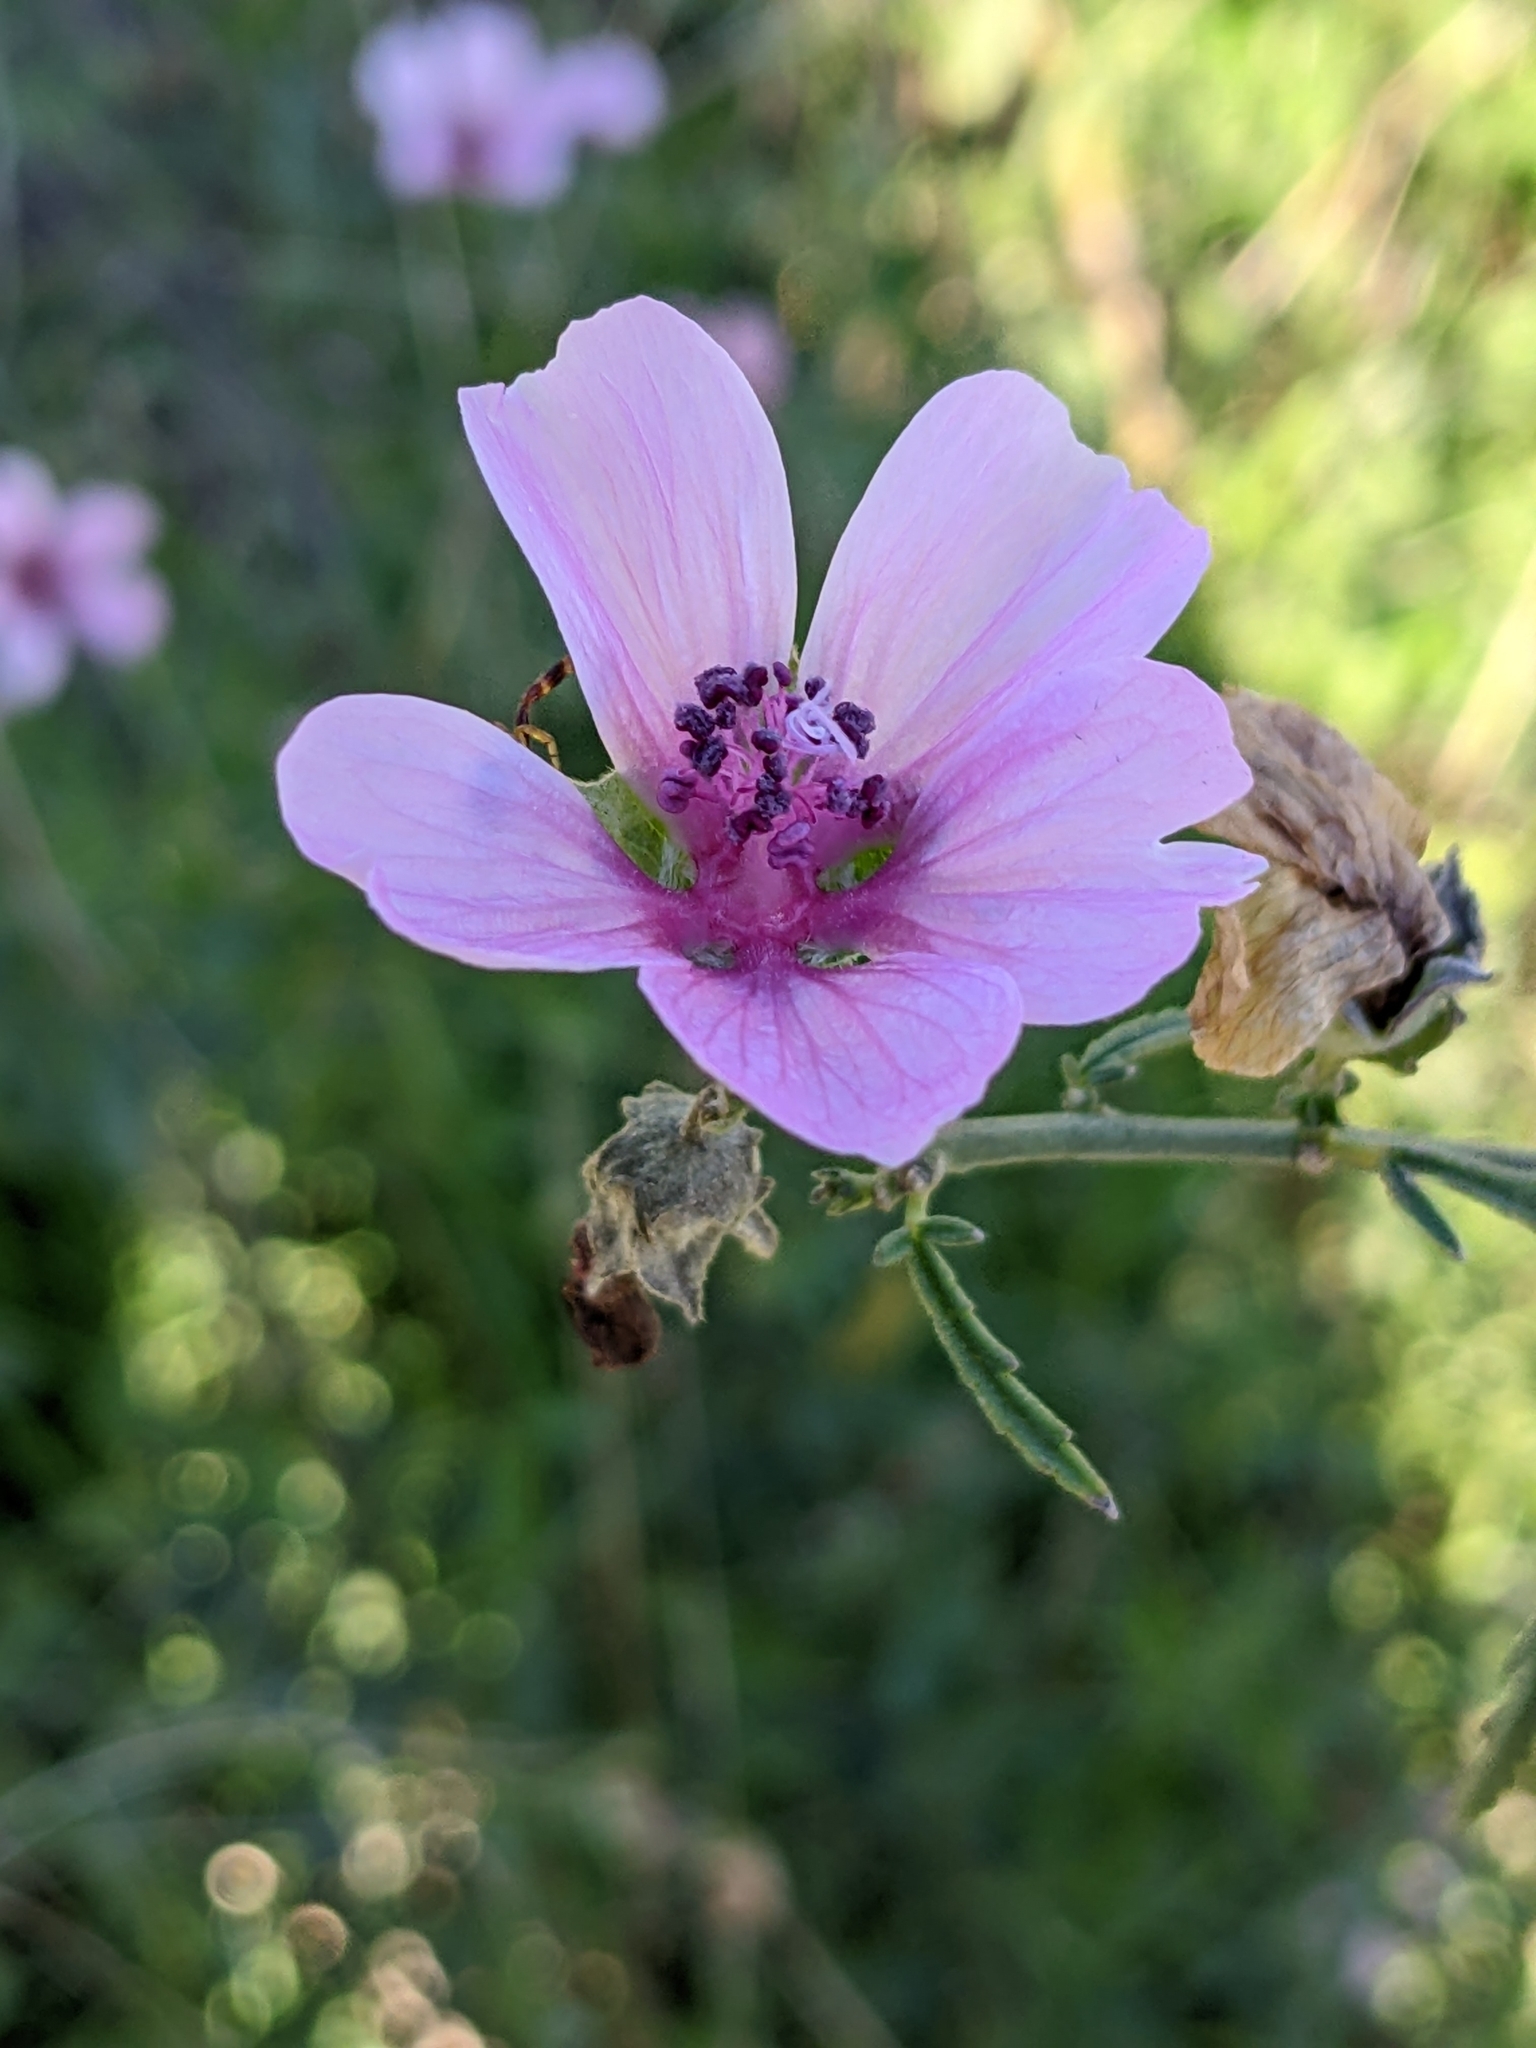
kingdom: Plantae
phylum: Tracheophyta
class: Magnoliopsida
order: Malvales
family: Malvaceae
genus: Althaea
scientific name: Althaea cannabina
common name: Palm-leaf marshmallow
